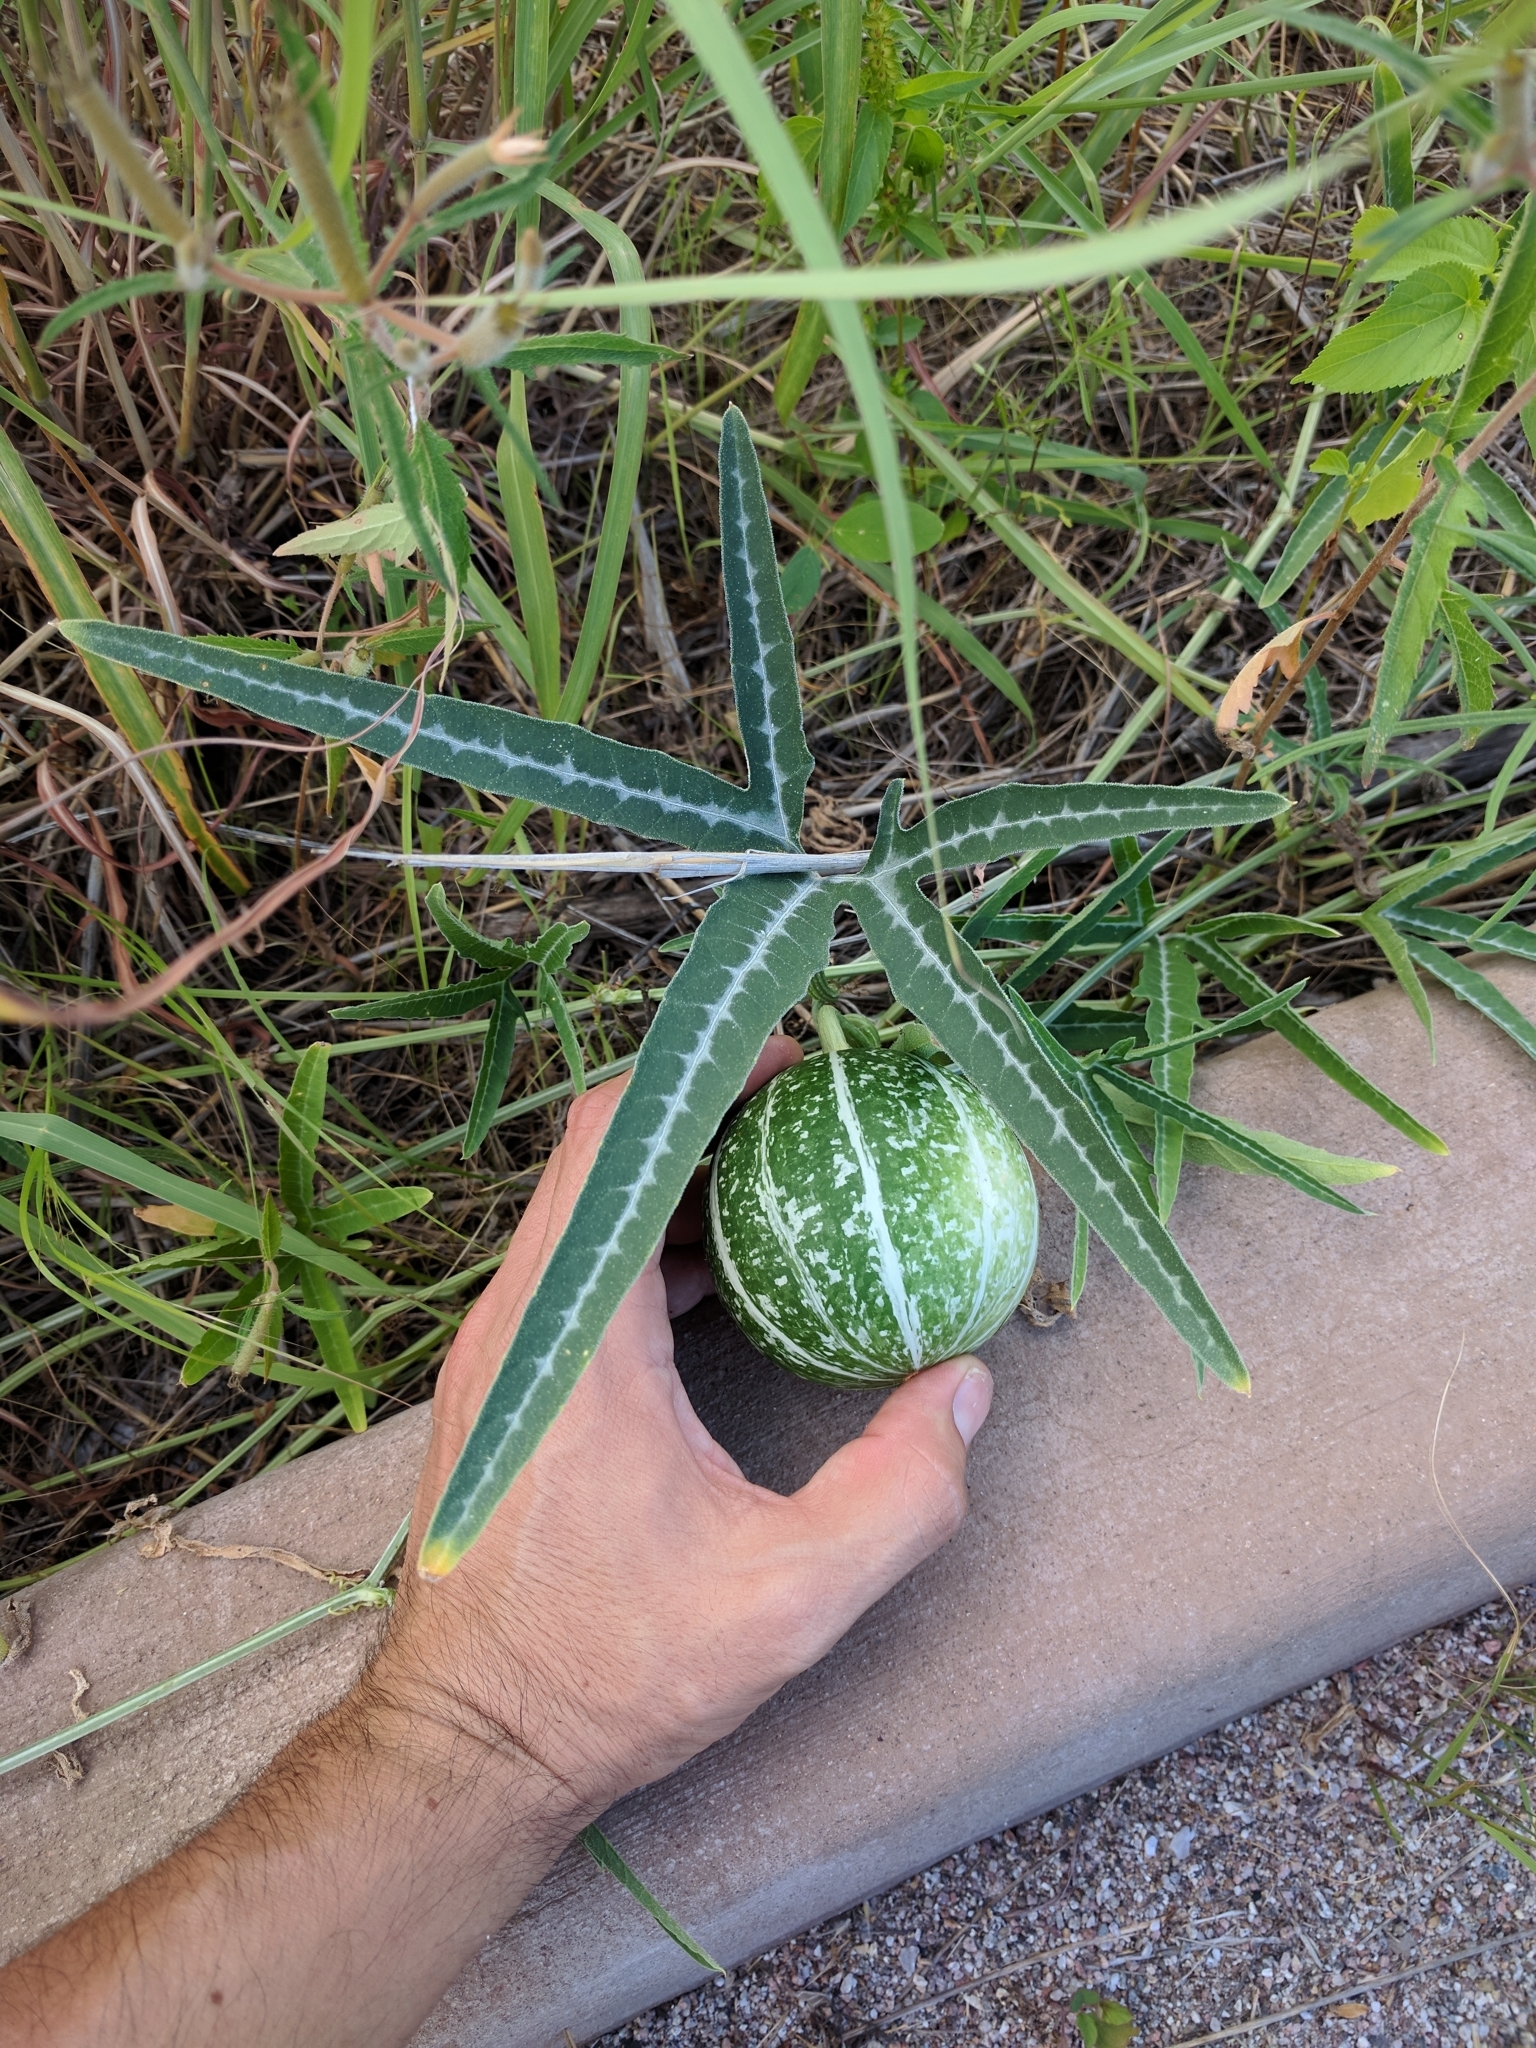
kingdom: Plantae
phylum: Tracheophyta
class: Magnoliopsida
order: Cucurbitales
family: Cucurbitaceae
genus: Cucurbita
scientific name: Cucurbita digitata
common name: Finger-leaf gourd
